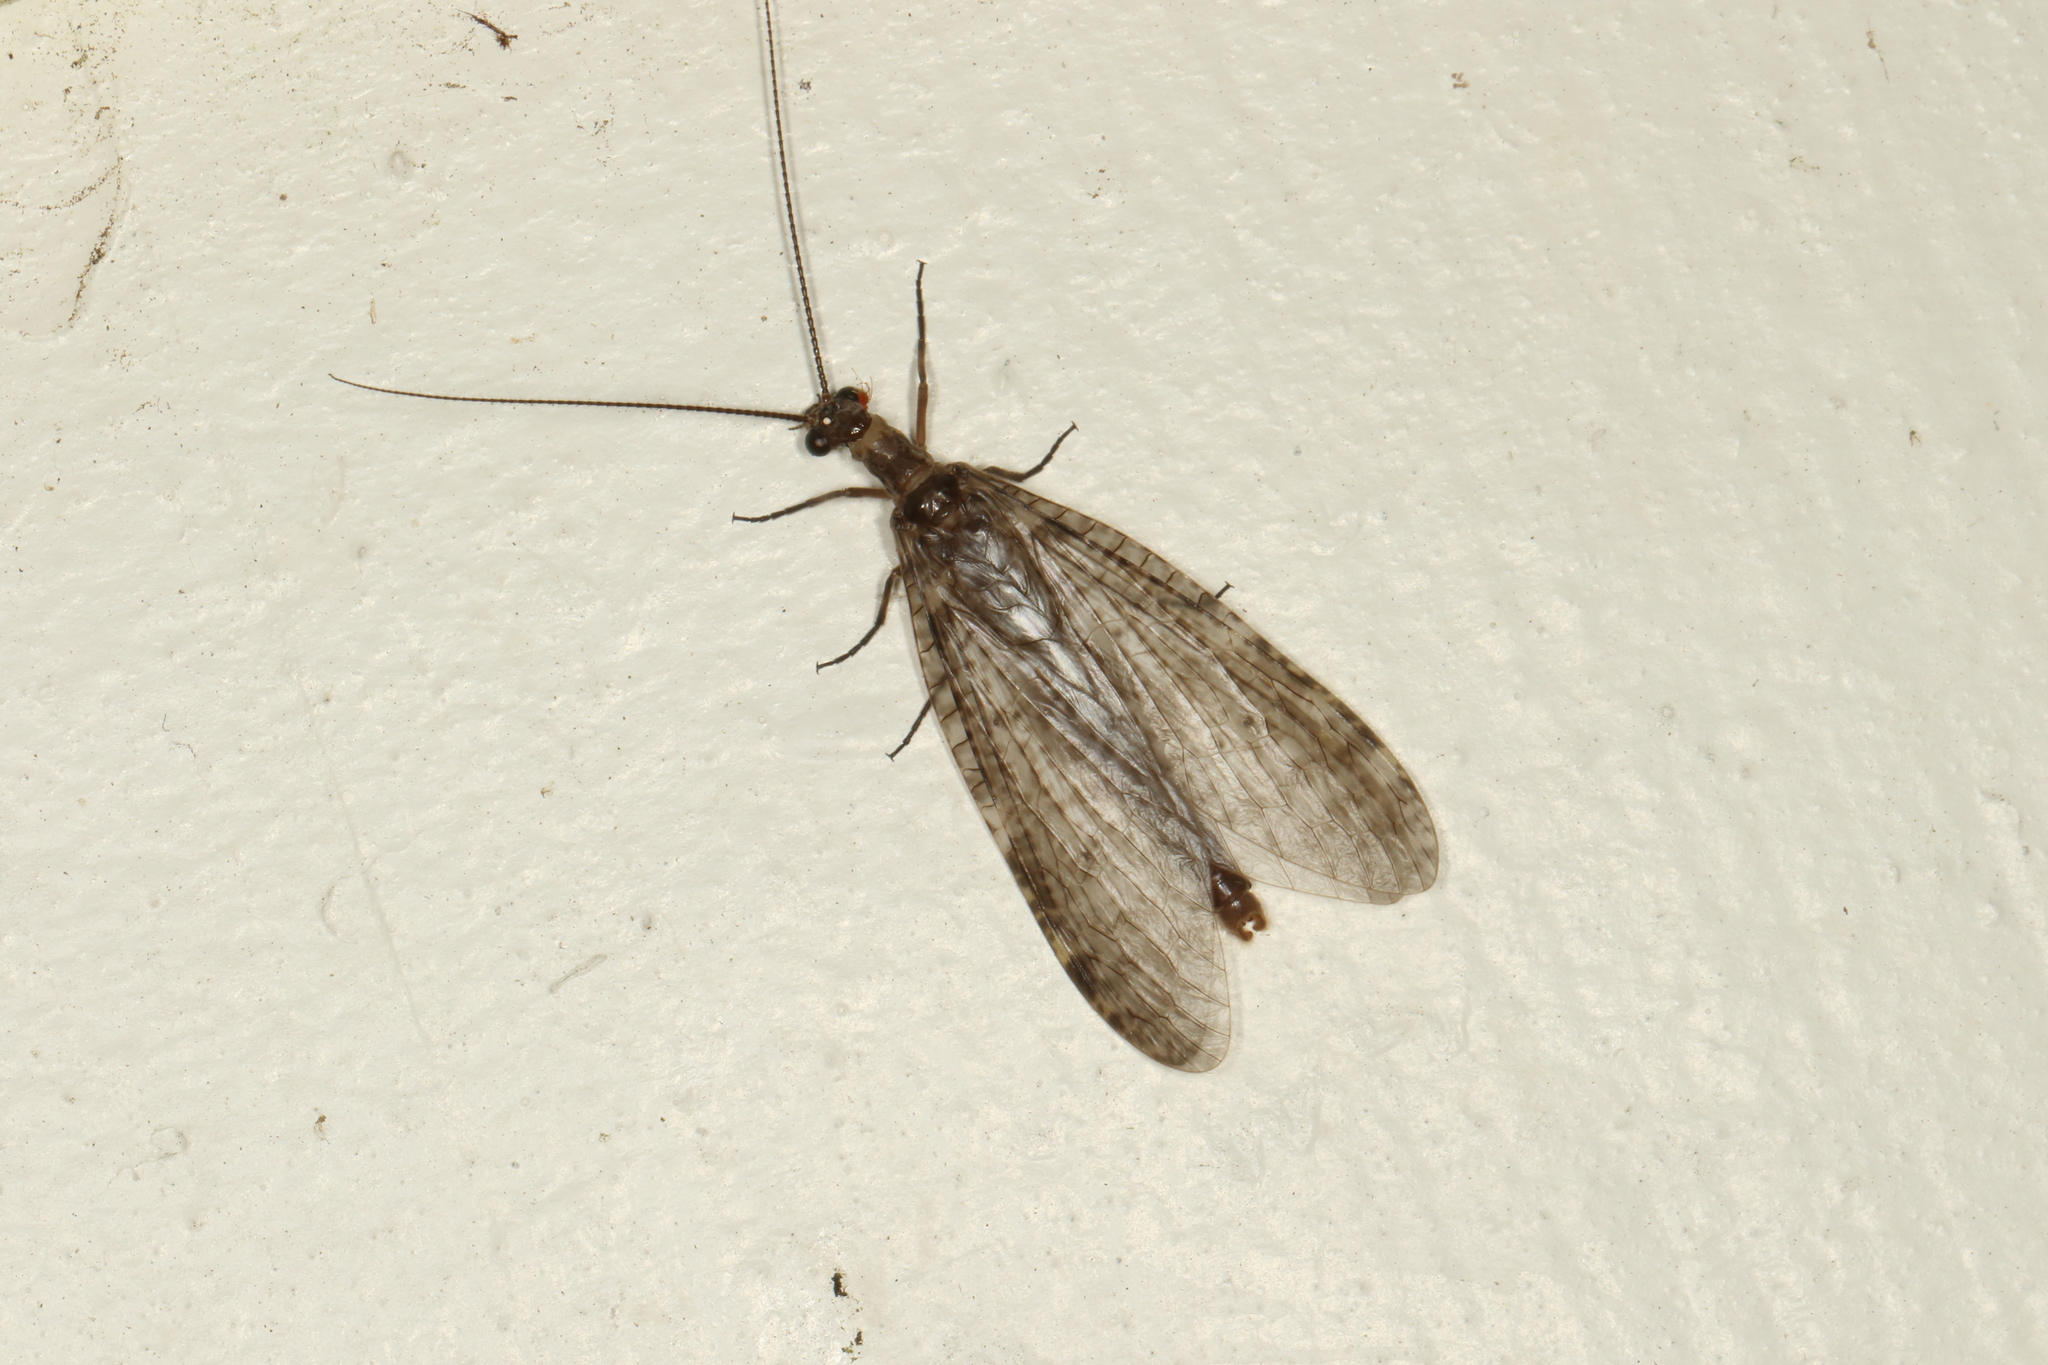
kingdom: Animalia
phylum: Arthropoda
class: Insecta
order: Megaloptera
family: Corydalidae
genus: Archichauliodes
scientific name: Archichauliodes diversus
